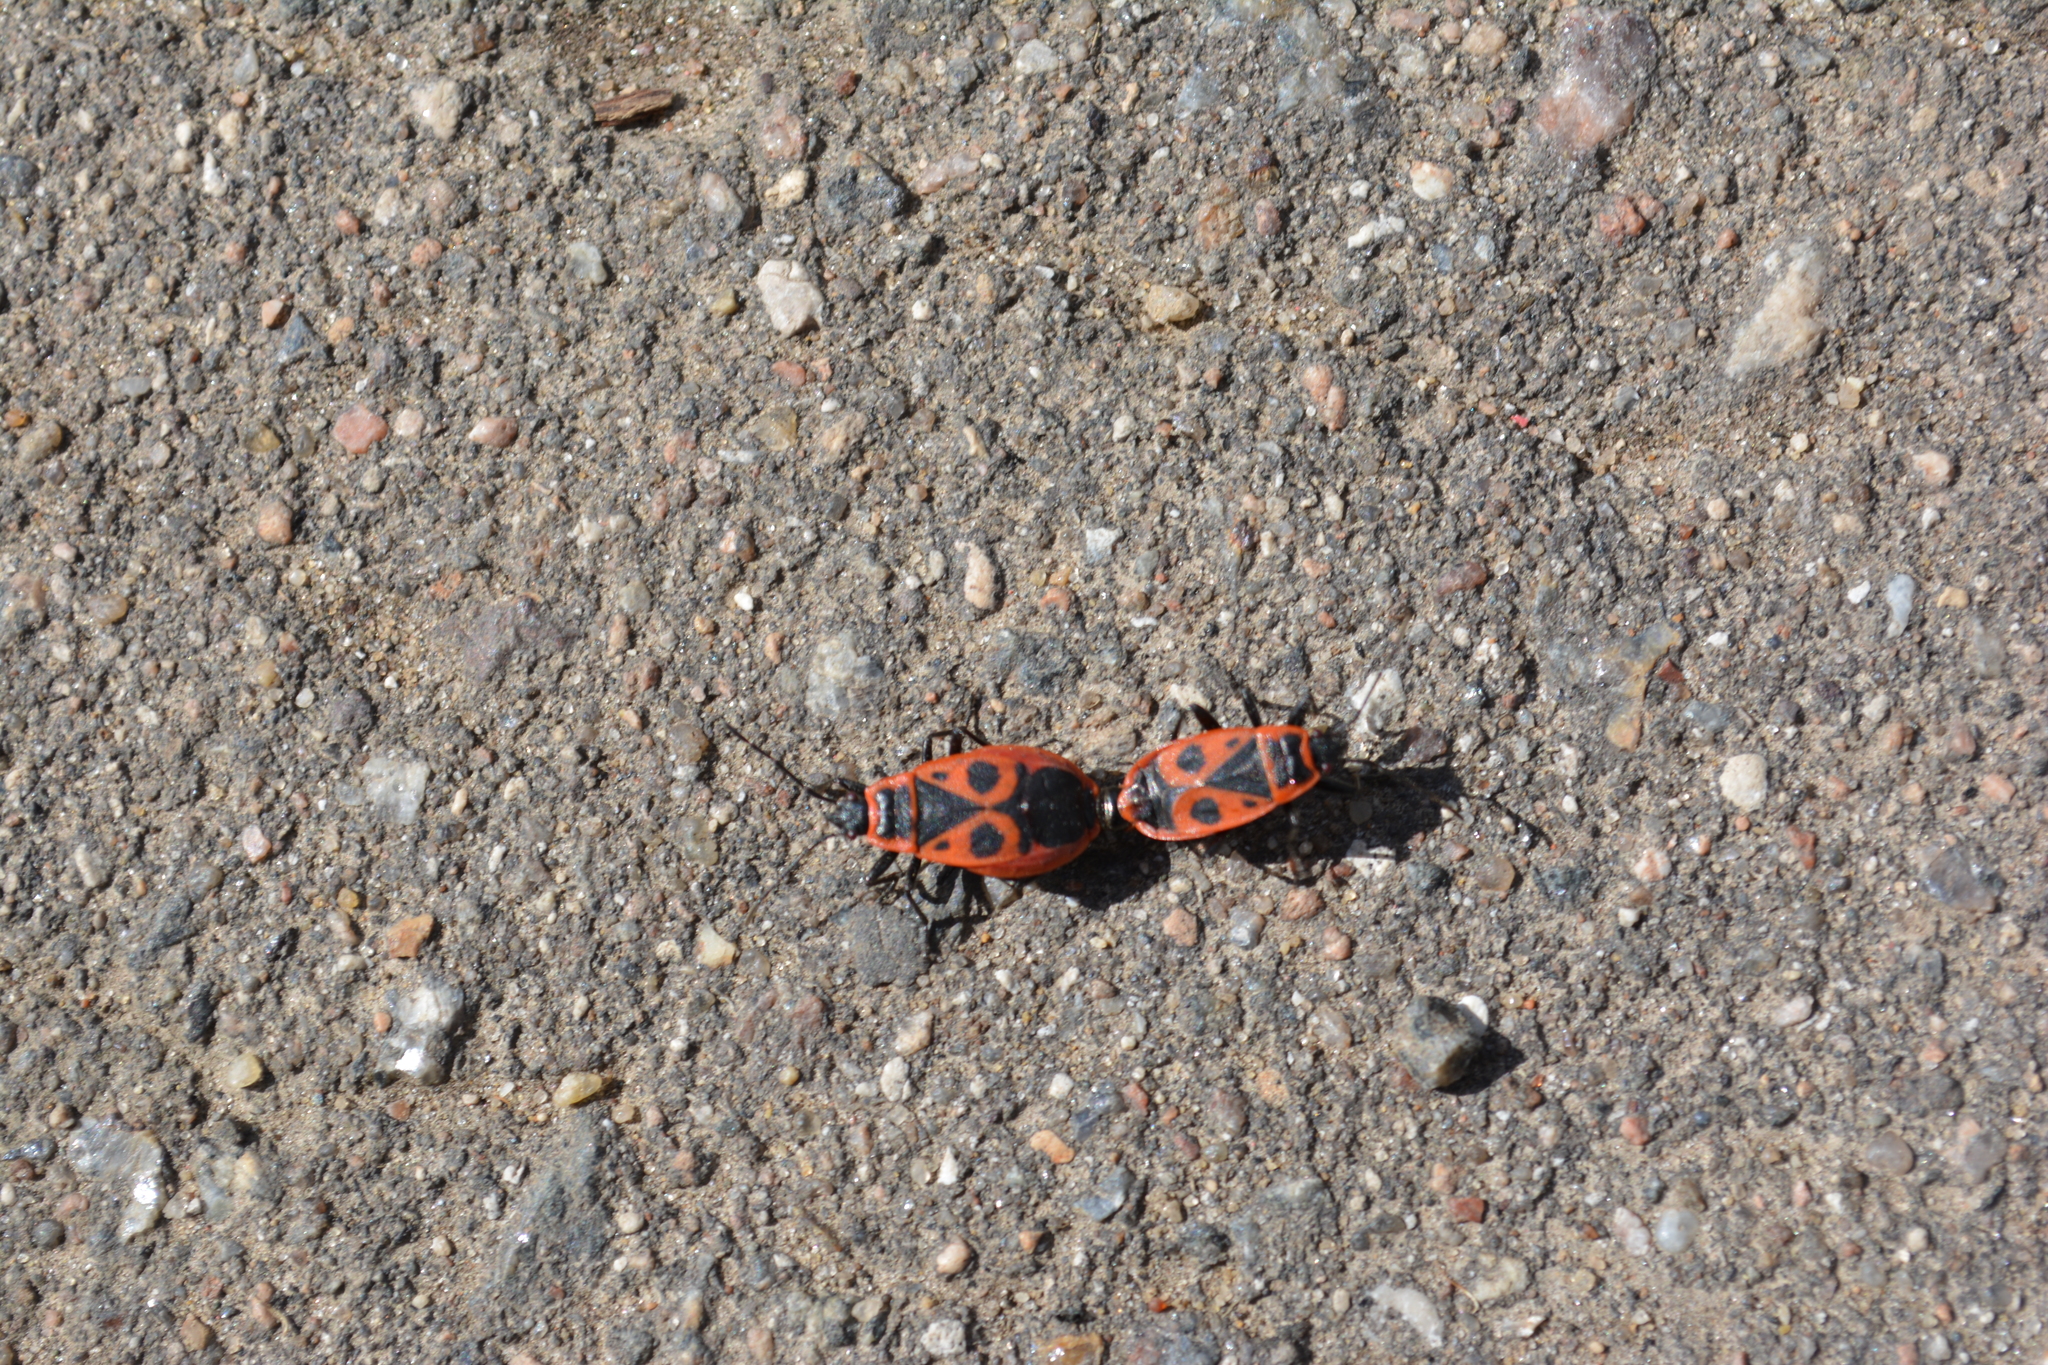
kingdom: Animalia
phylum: Arthropoda
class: Insecta
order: Hemiptera
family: Pyrrhocoridae
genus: Pyrrhocoris
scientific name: Pyrrhocoris apterus
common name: Firebug
